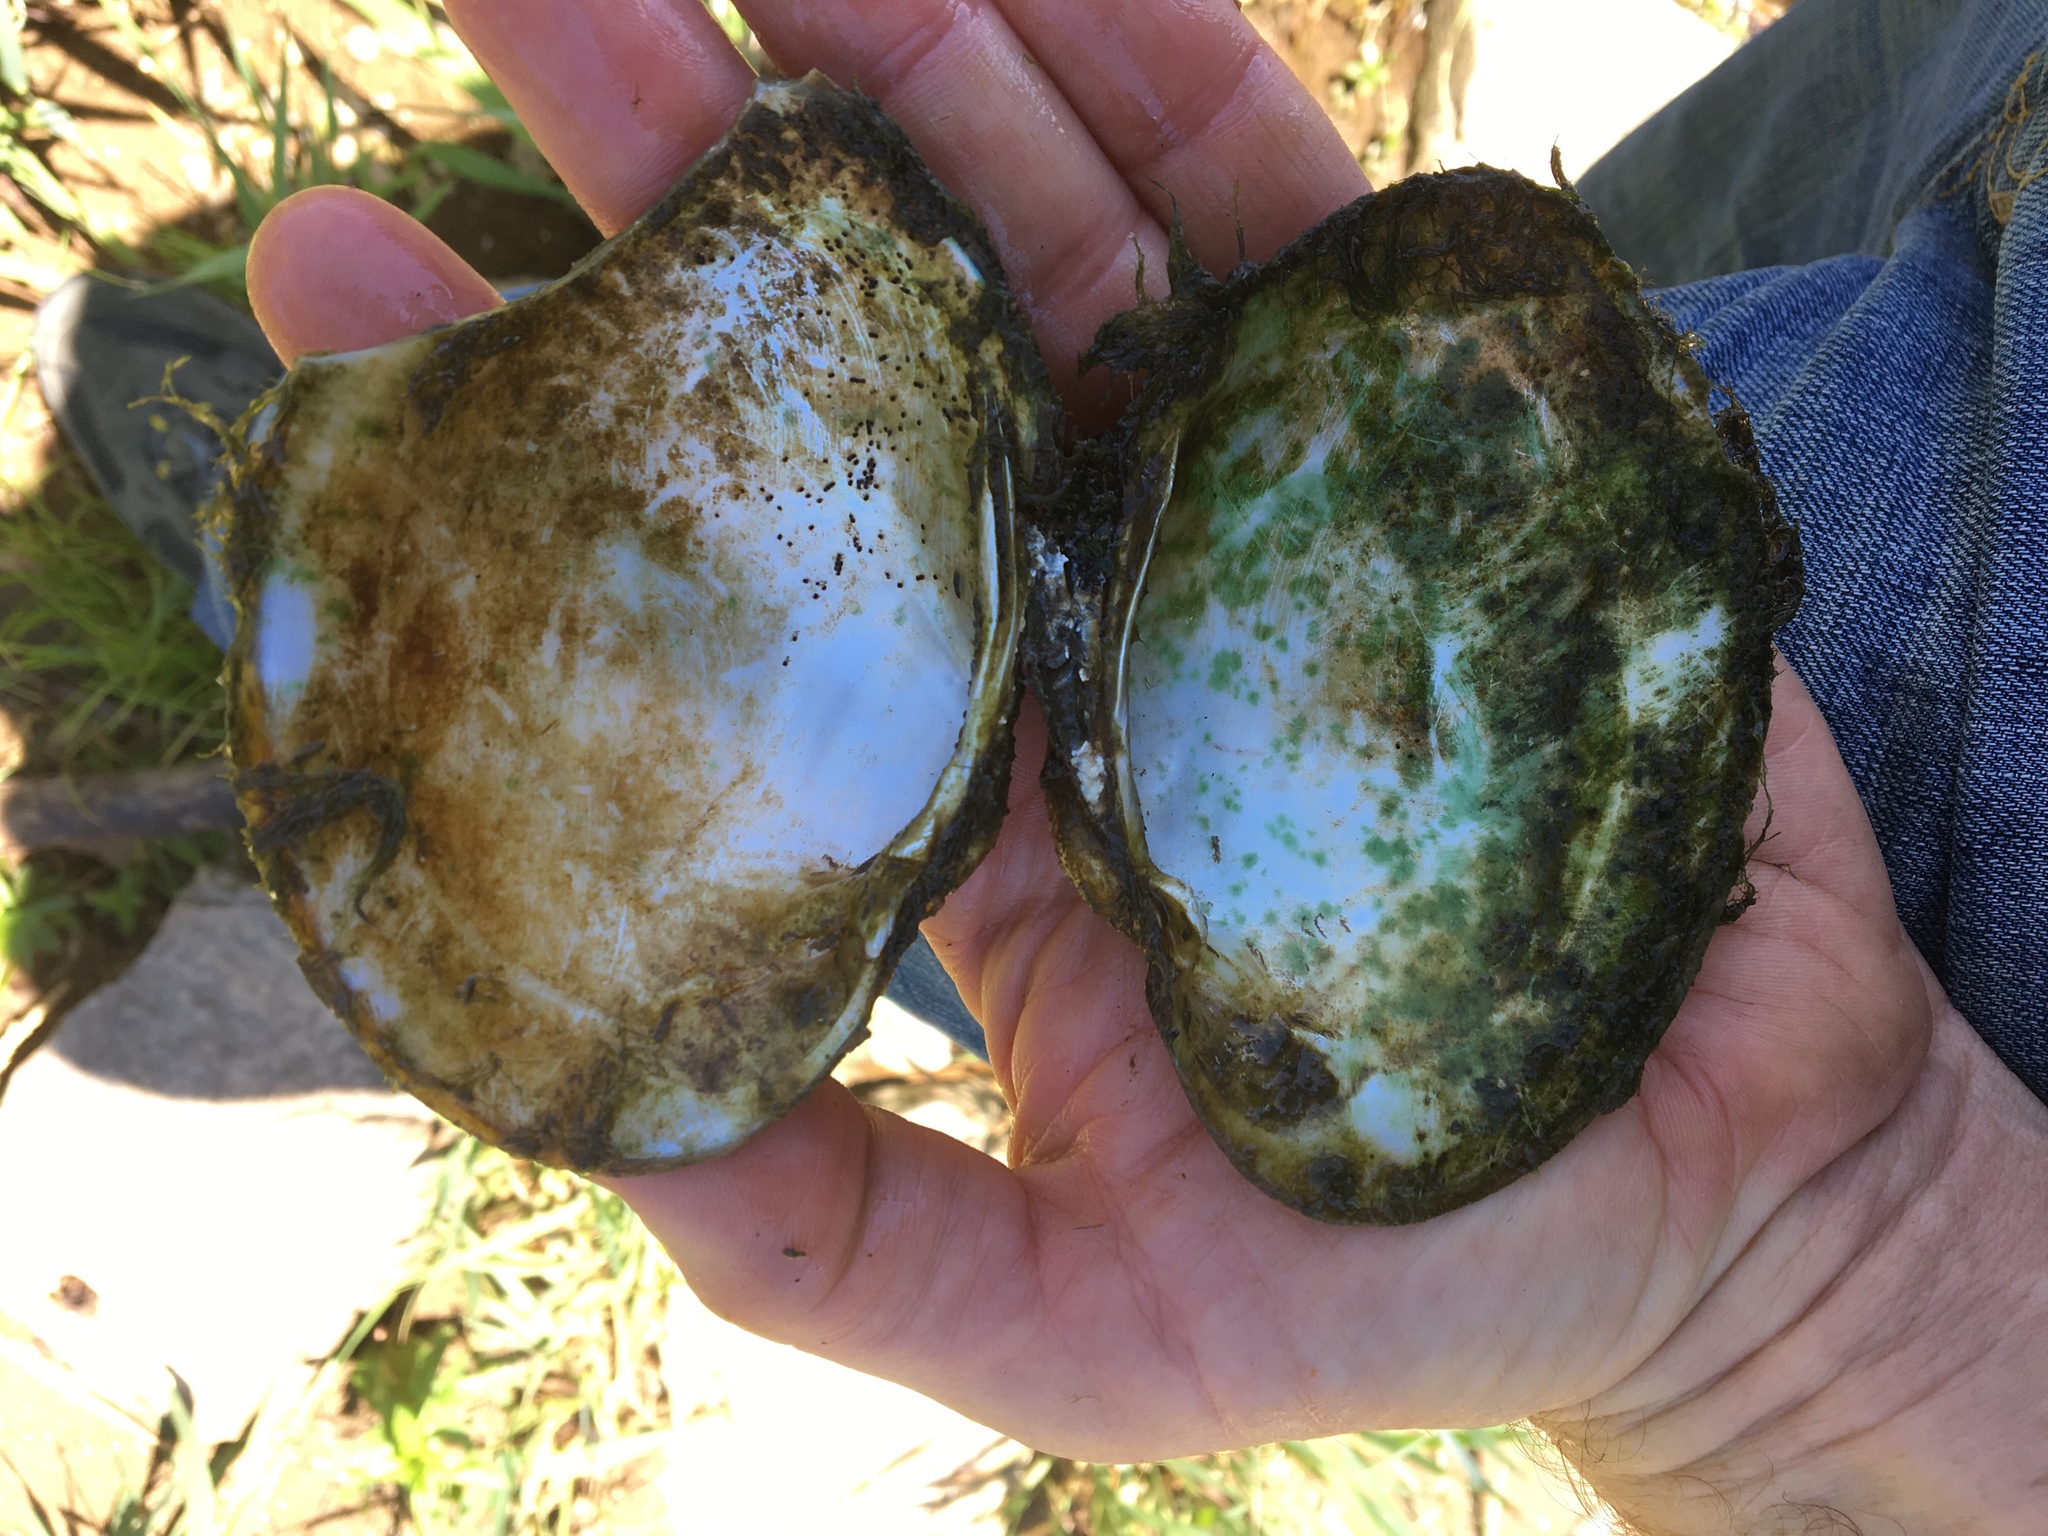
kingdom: Animalia
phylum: Mollusca
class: Bivalvia
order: Unionida
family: Unionidae
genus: Lampsilis
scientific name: Lampsilis cardium
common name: Plain pocketbook
